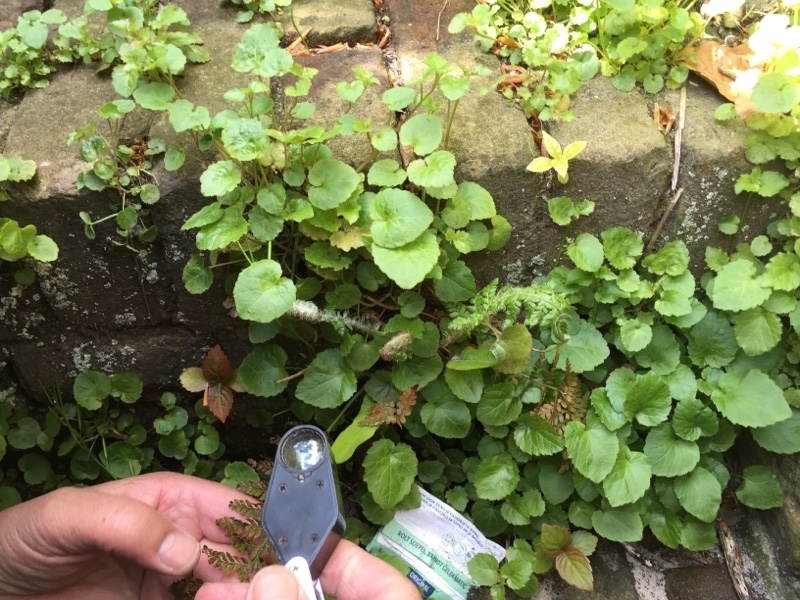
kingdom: Plantae
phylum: Tracheophyta
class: Polypodiopsida
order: Polypodiales
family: Dryopteridaceae
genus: Polystichum
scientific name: Polystichum setiferum
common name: Soft shield-fern
